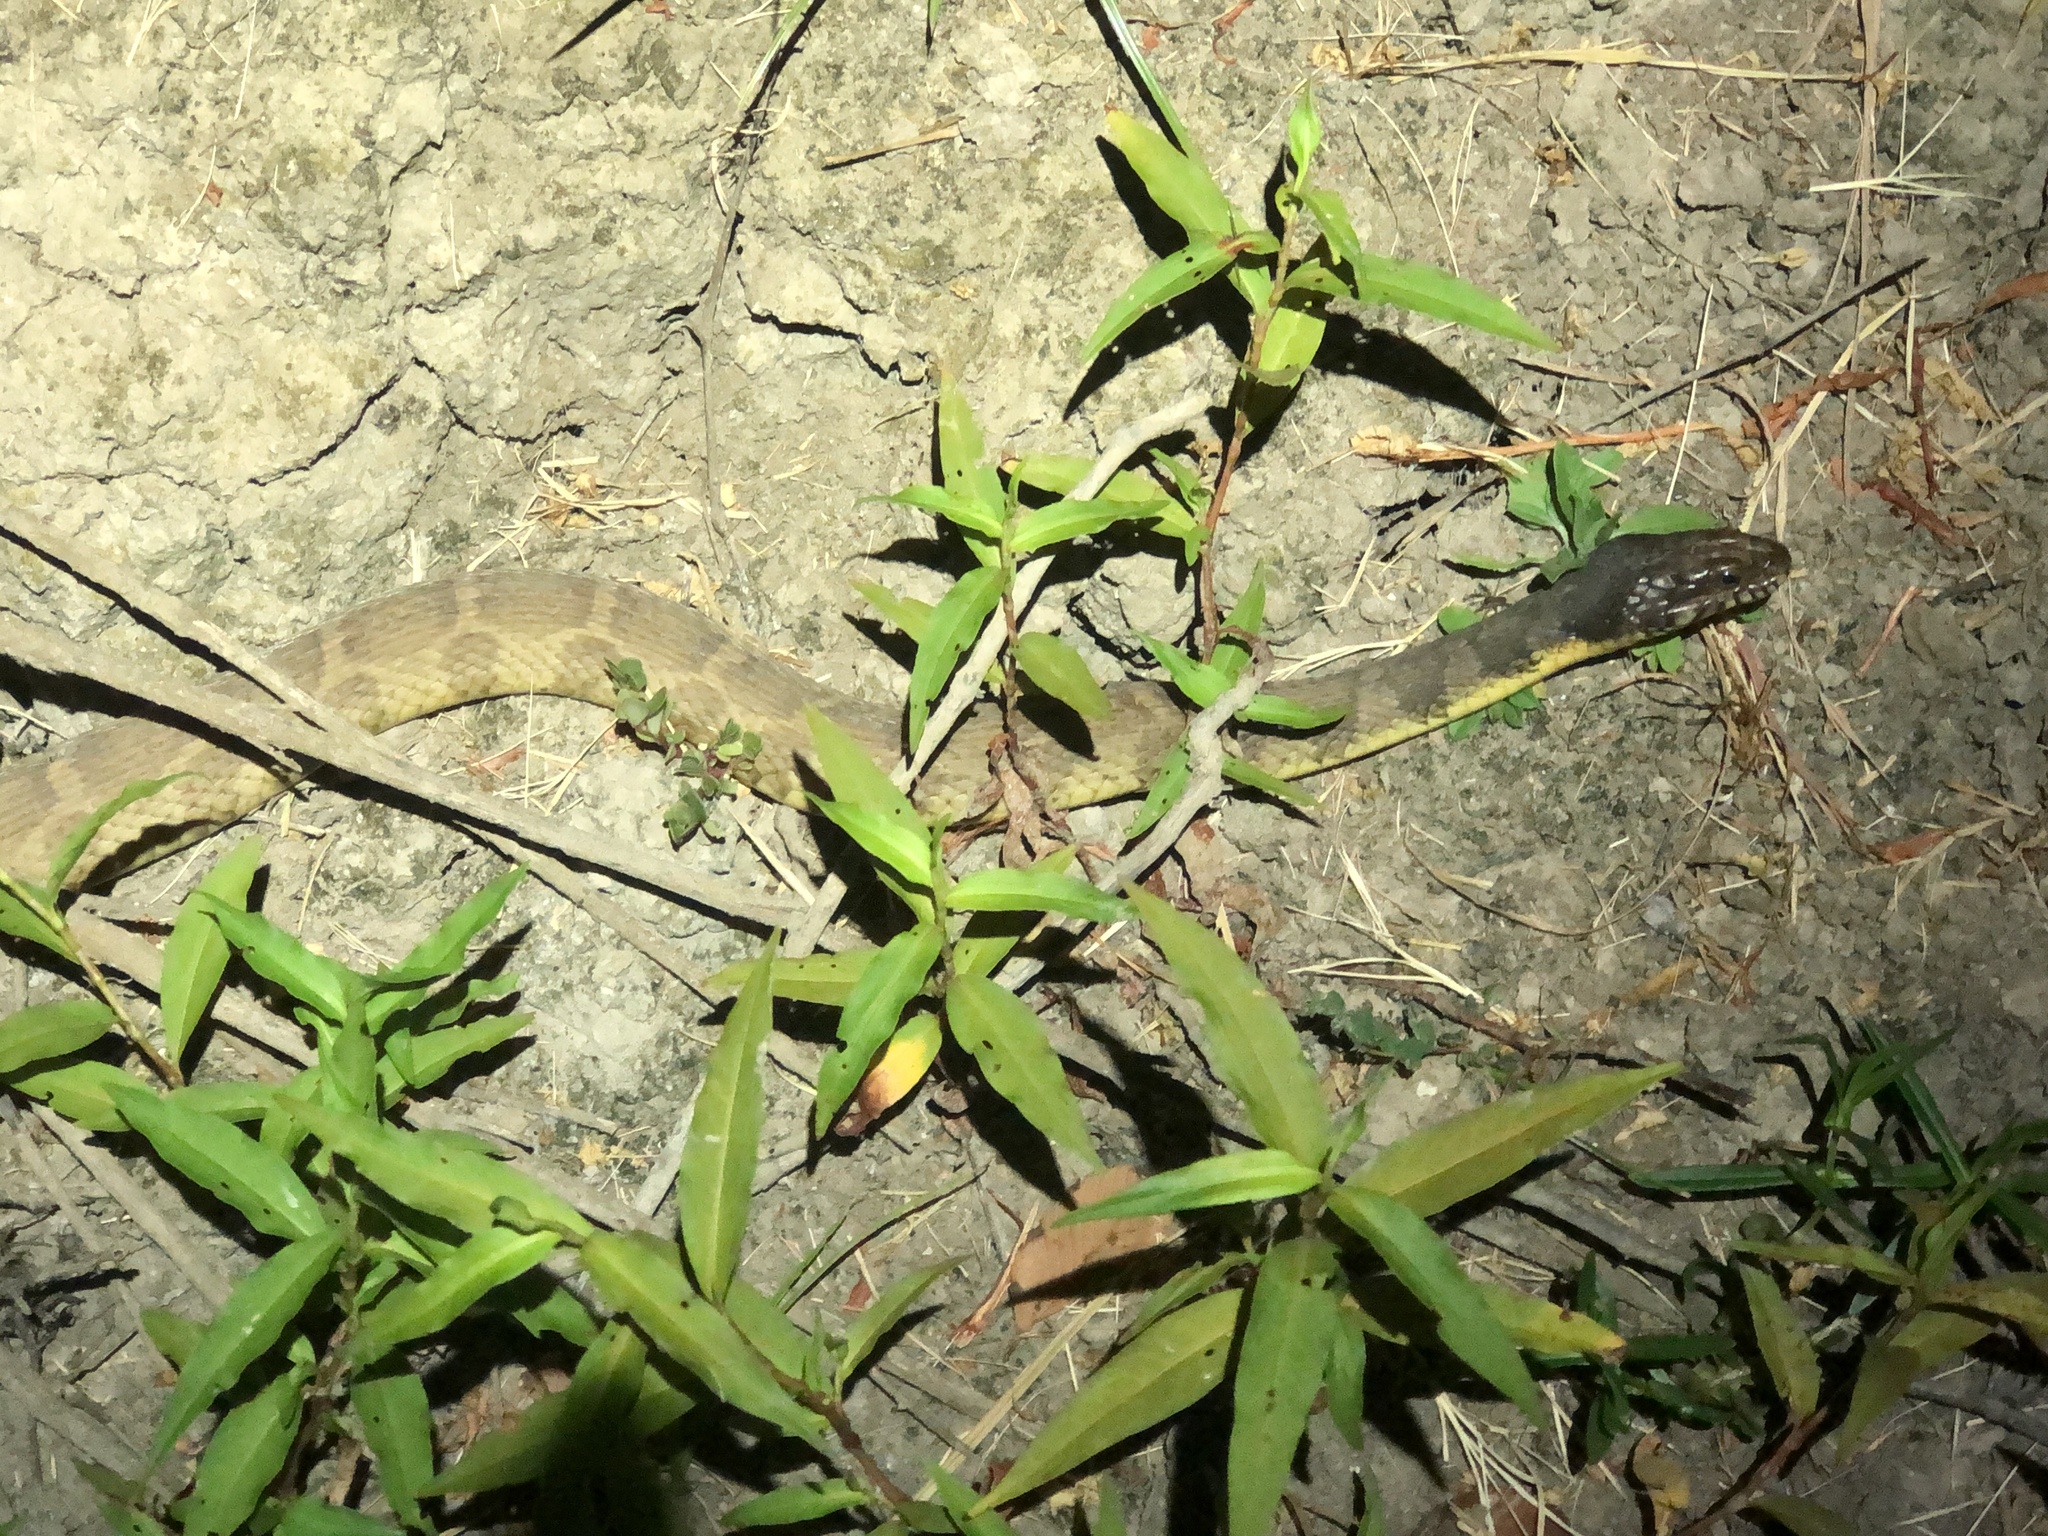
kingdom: Animalia
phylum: Chordata
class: Squamata
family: Colubridae
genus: Nerodia
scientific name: Nerodia erythrogaster
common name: Plainbelly water snake
